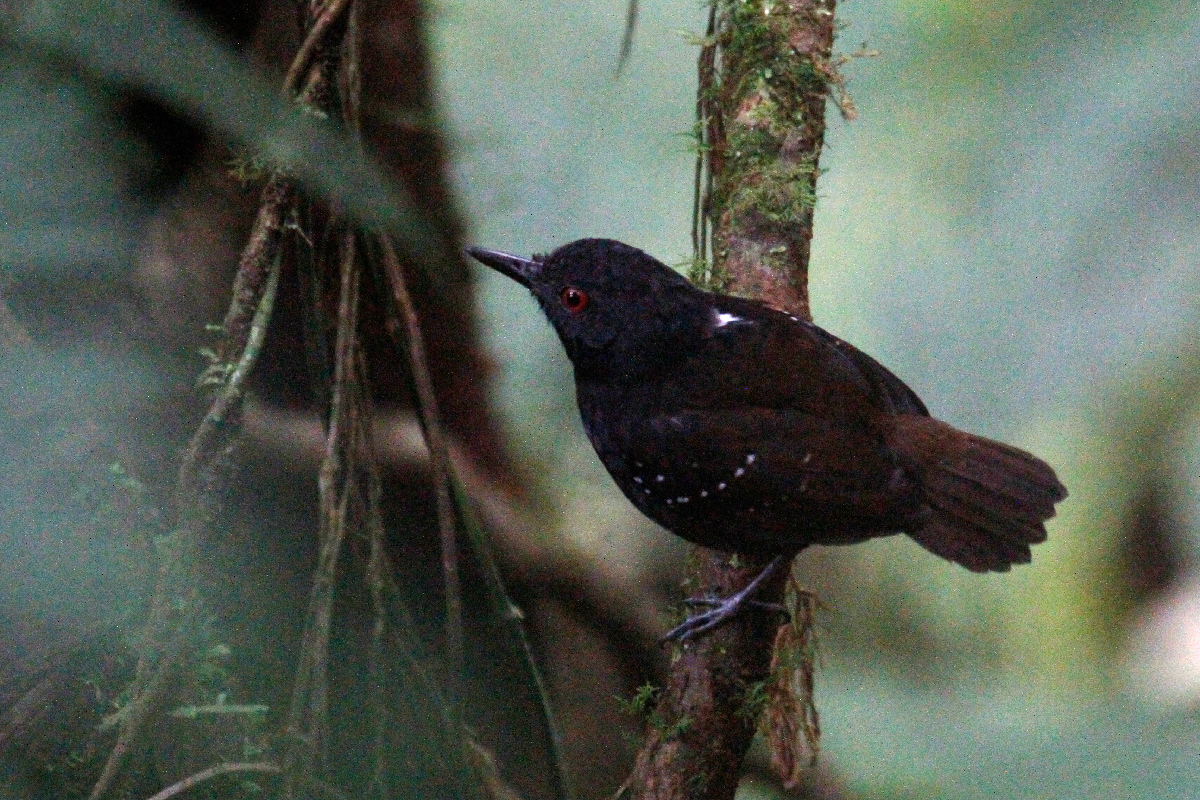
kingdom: Animalia
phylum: Chordata
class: Aves
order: Passeriformes
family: Thamnophilidae
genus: Sipia
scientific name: Sipia laemosticta
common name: Dull-mantled antbird
